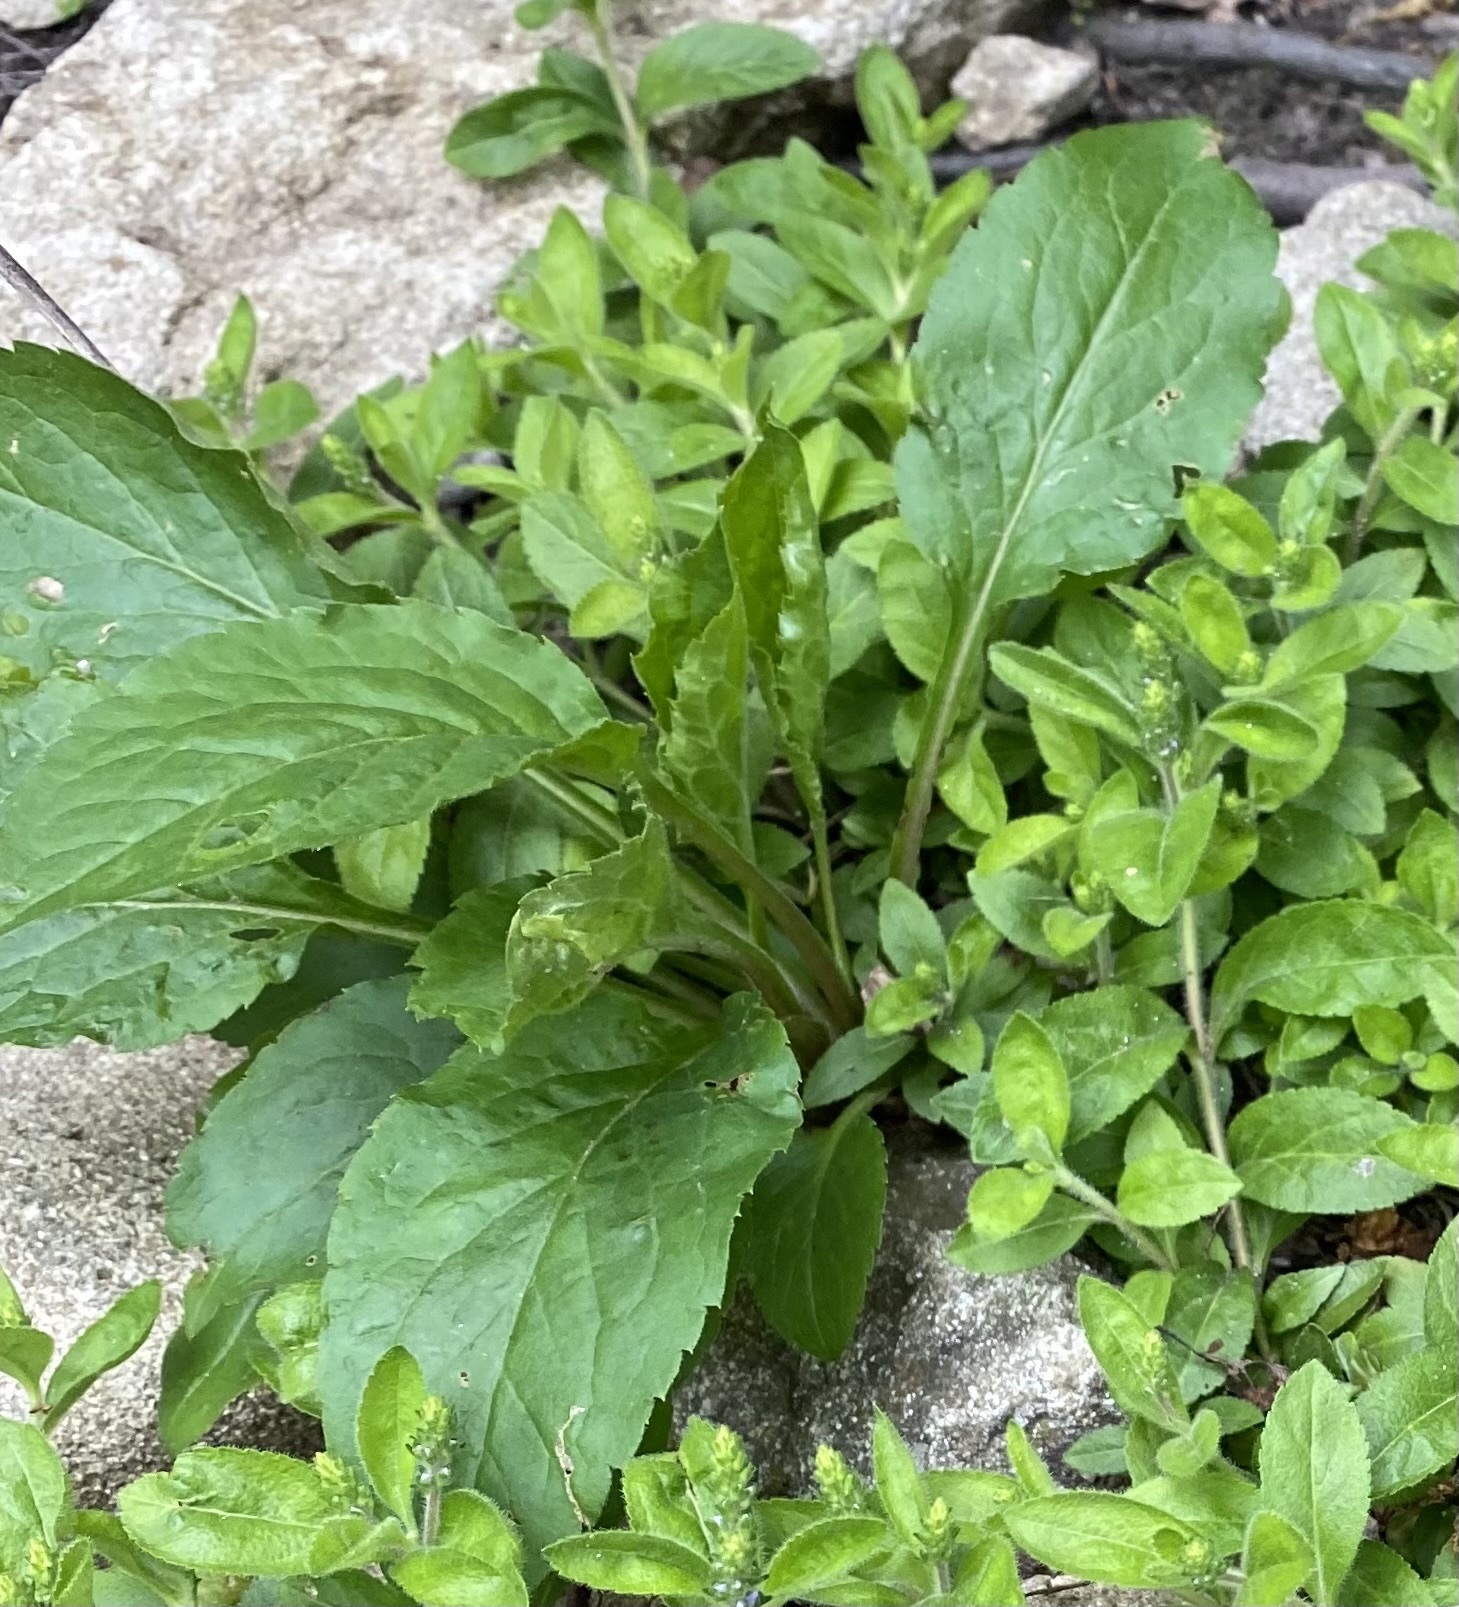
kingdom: Plantae
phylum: Tracheophyta
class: Magnoliopsida
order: Asterales
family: Asteraceae
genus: Solidago
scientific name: Solidago virgaurea
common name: Goldenrod
